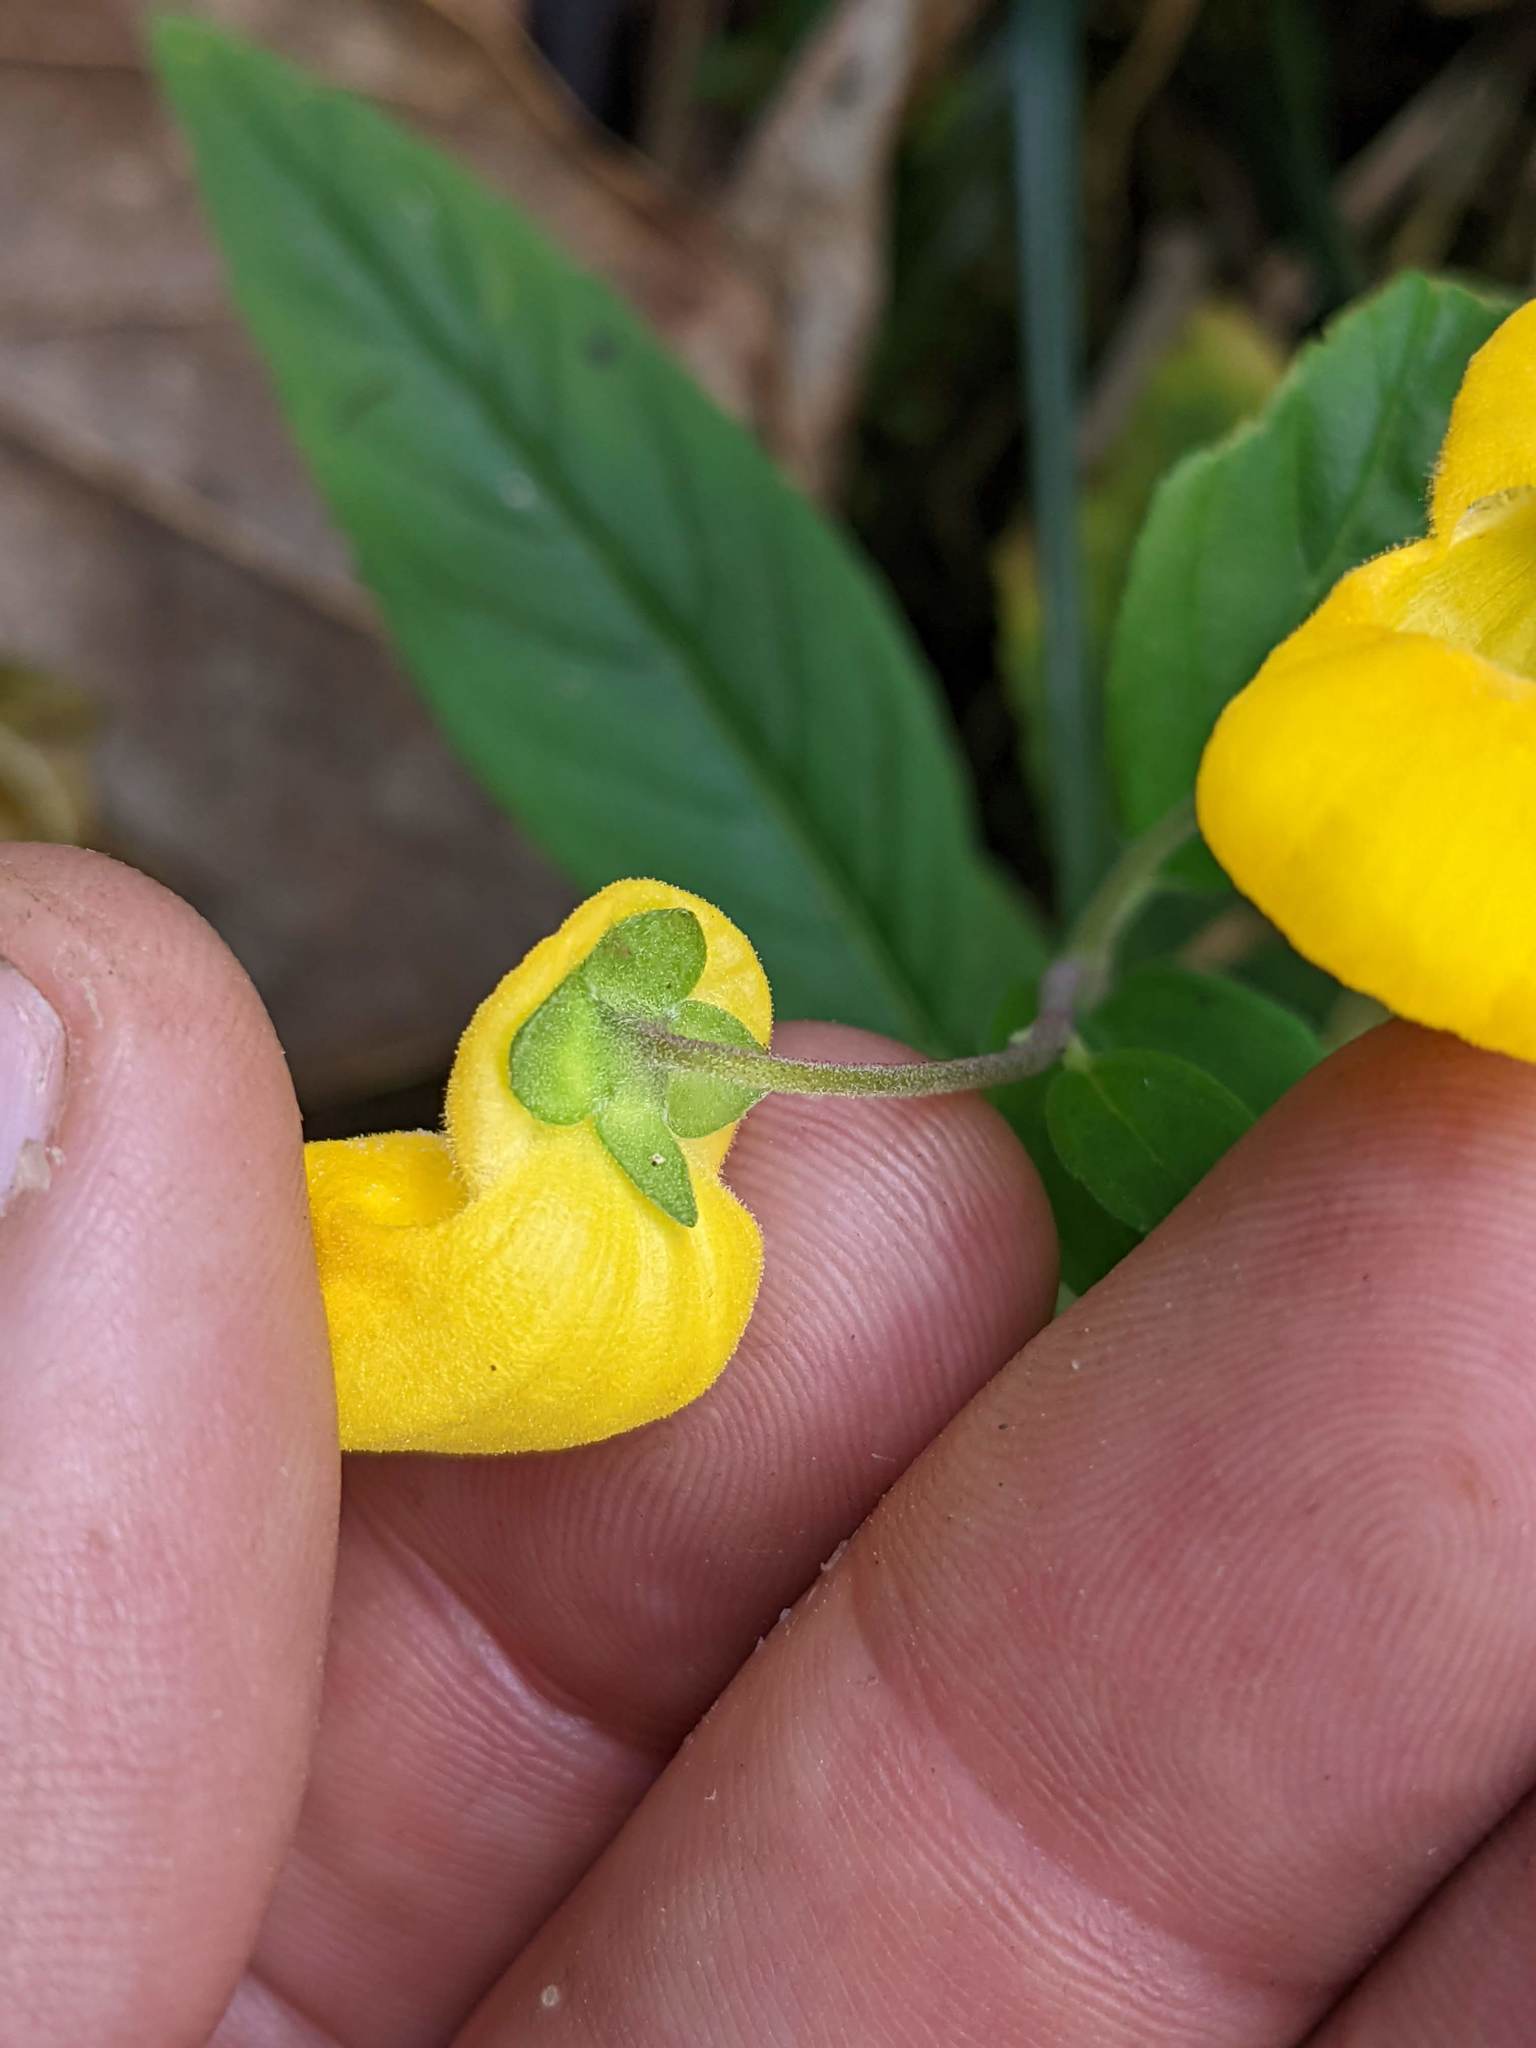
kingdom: Plantae
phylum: Tracheophyta
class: Magnoliopsida
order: Lamiales
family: Calceolariaceae
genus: Calceolaria
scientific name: Calceolaria irazuensis
